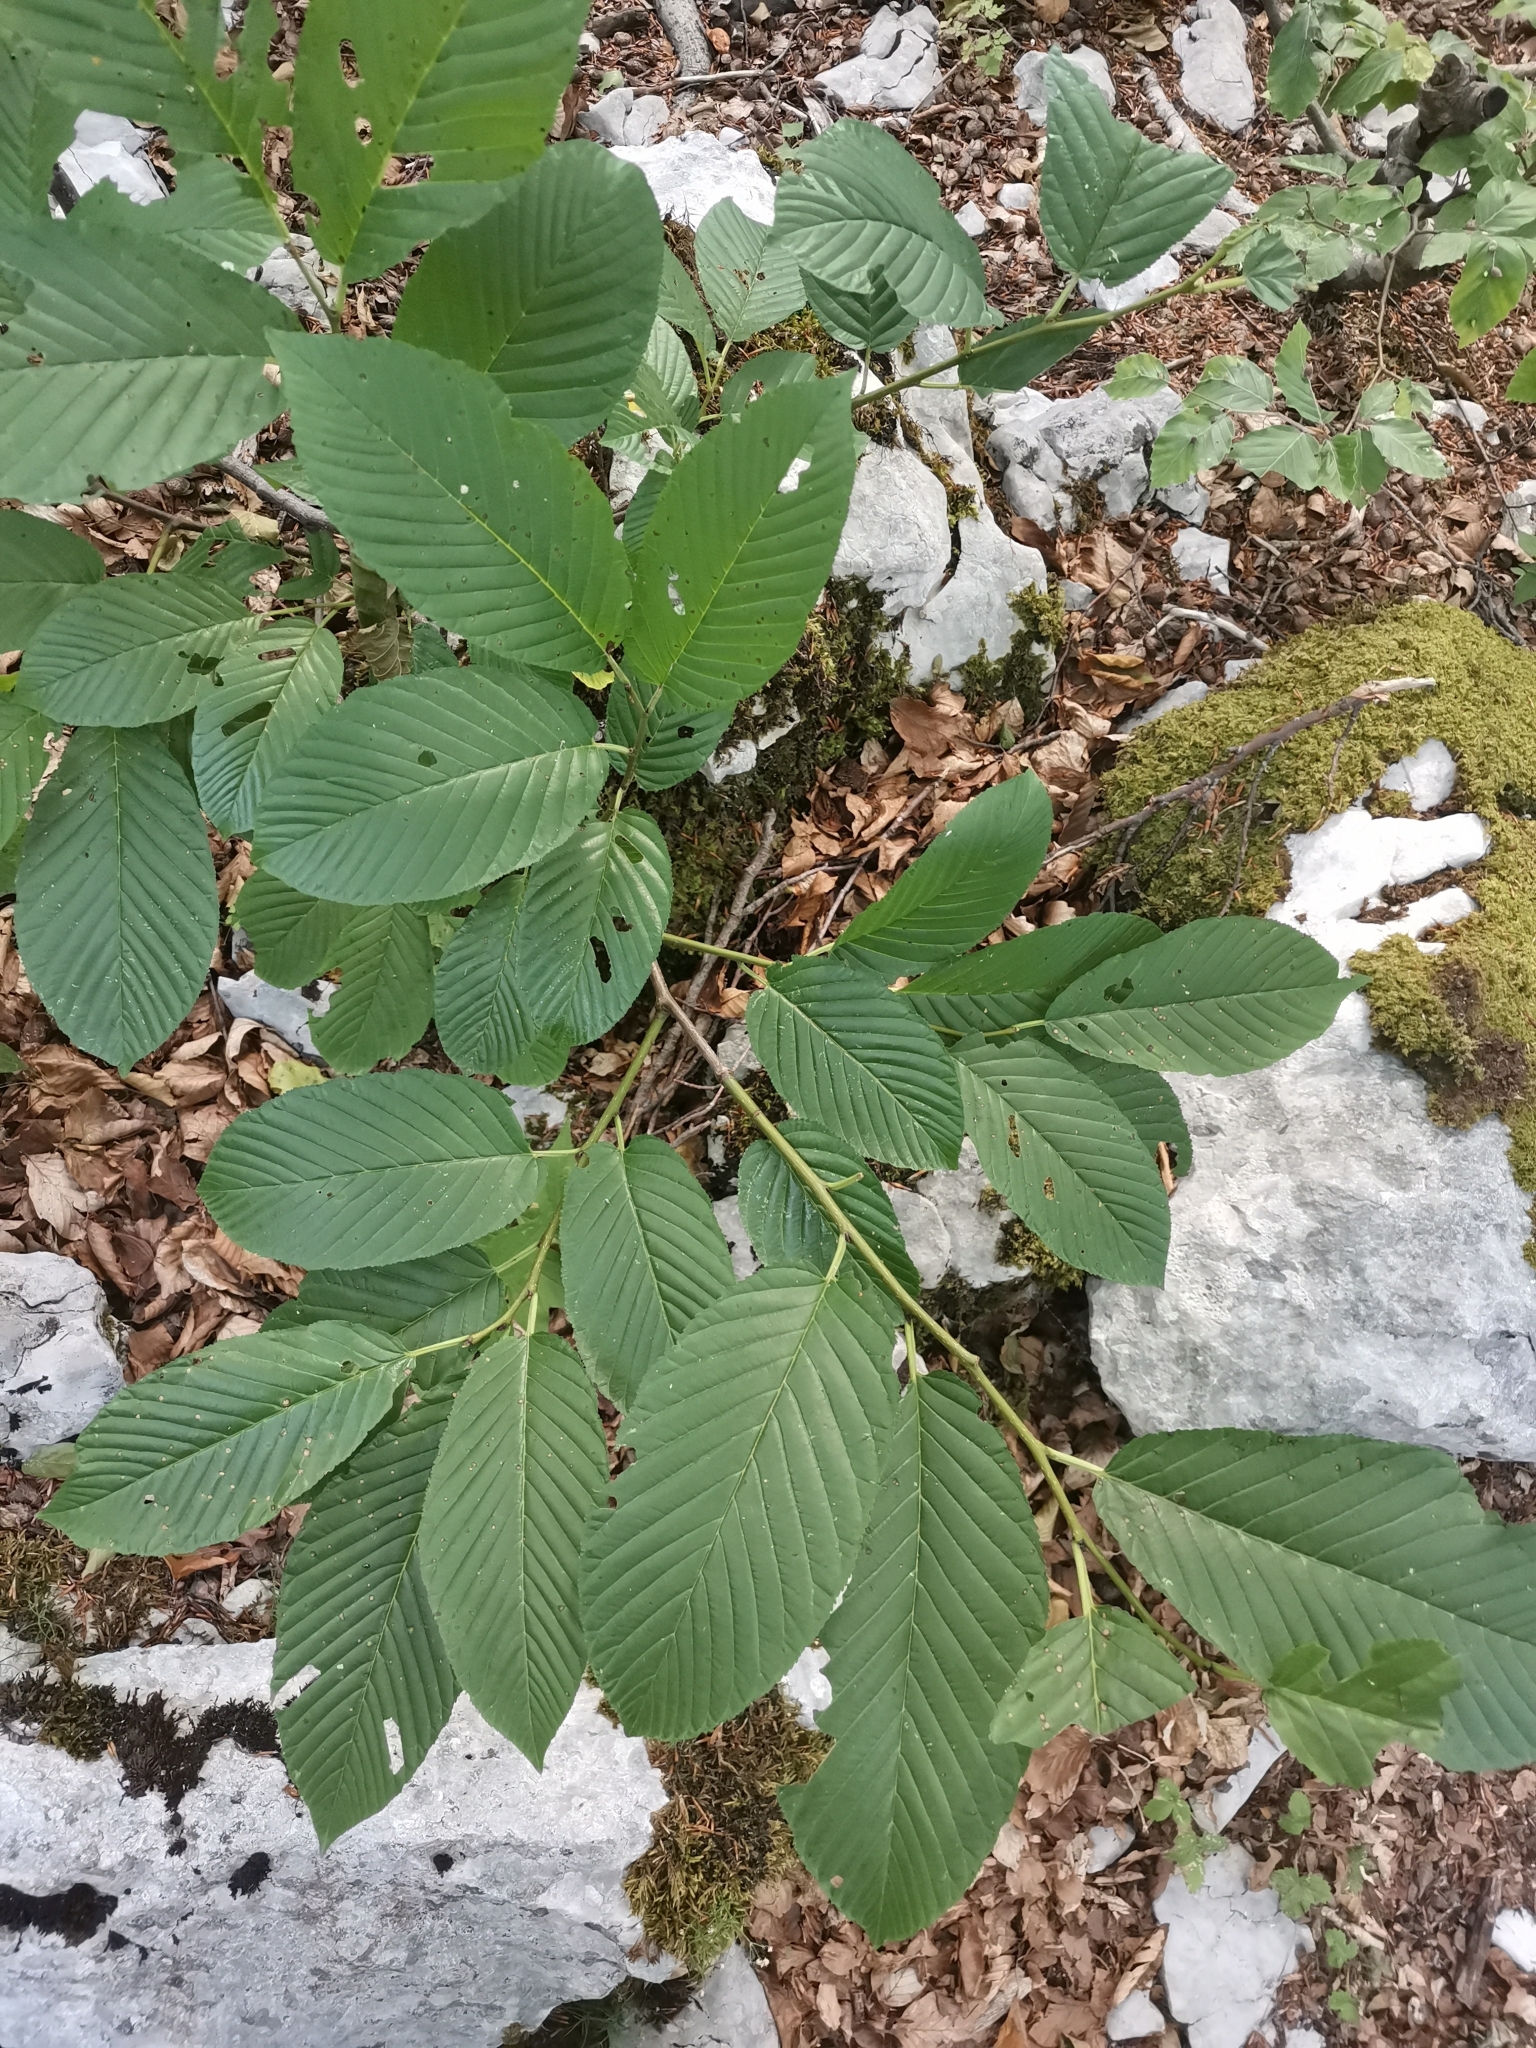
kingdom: Plantae
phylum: Tracheophyta
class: Magnoliopsida
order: Rosales
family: Rhamnaceae
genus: Atadinus
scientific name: Atadinus fallax
